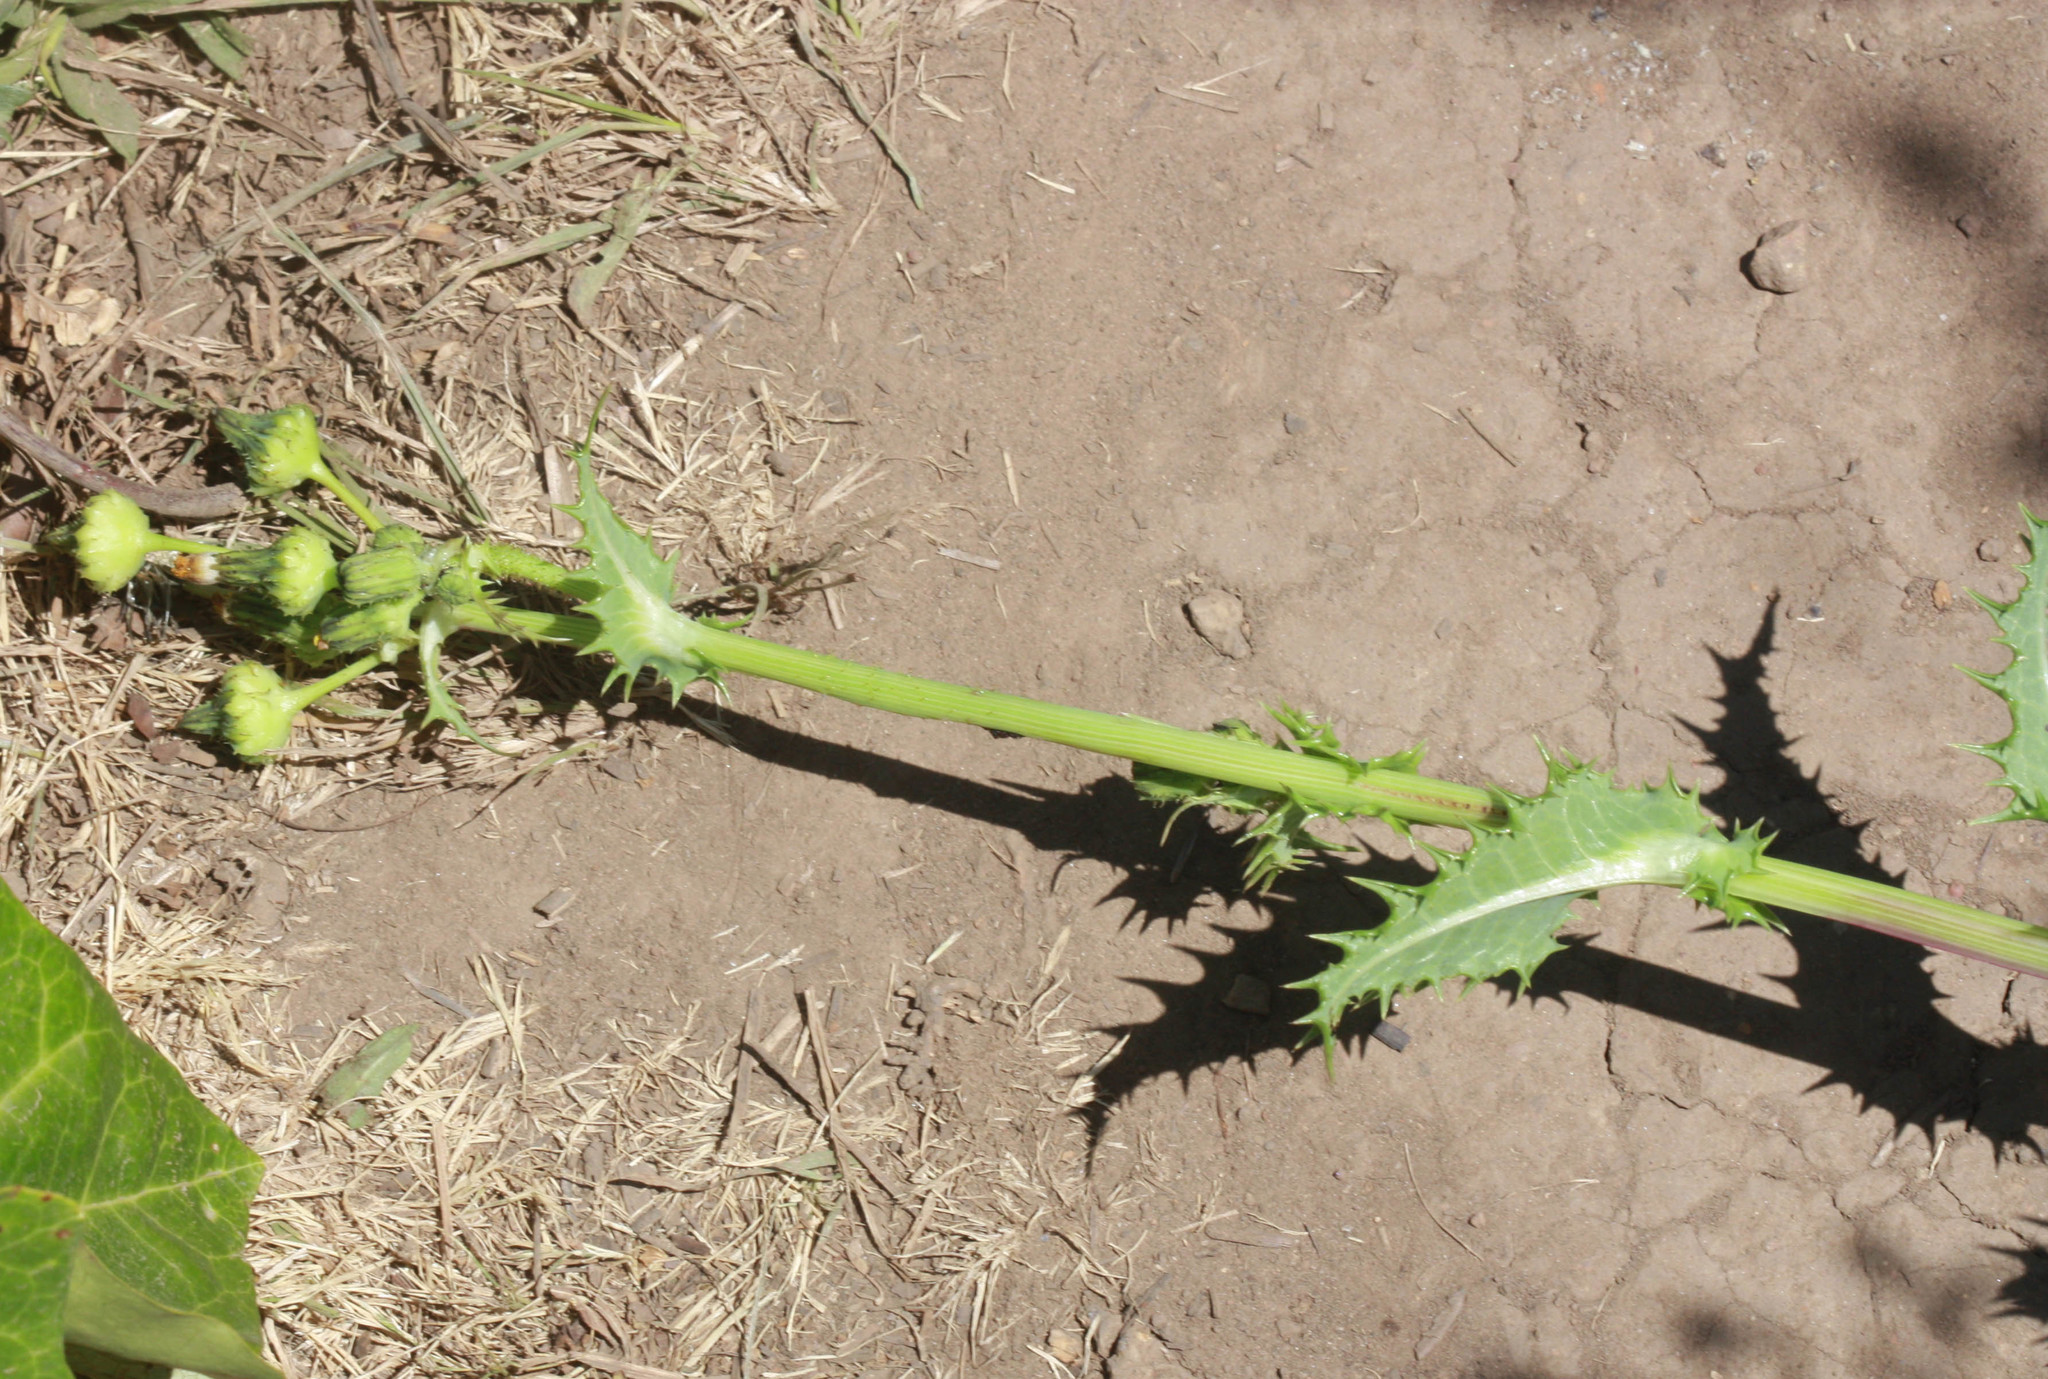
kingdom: Plantae
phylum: Tracheophyta
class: Magnoliopsida
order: Asterales
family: Asteraceae
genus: Sonchus
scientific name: Sonchus asper
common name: Prickly sow-thistle
